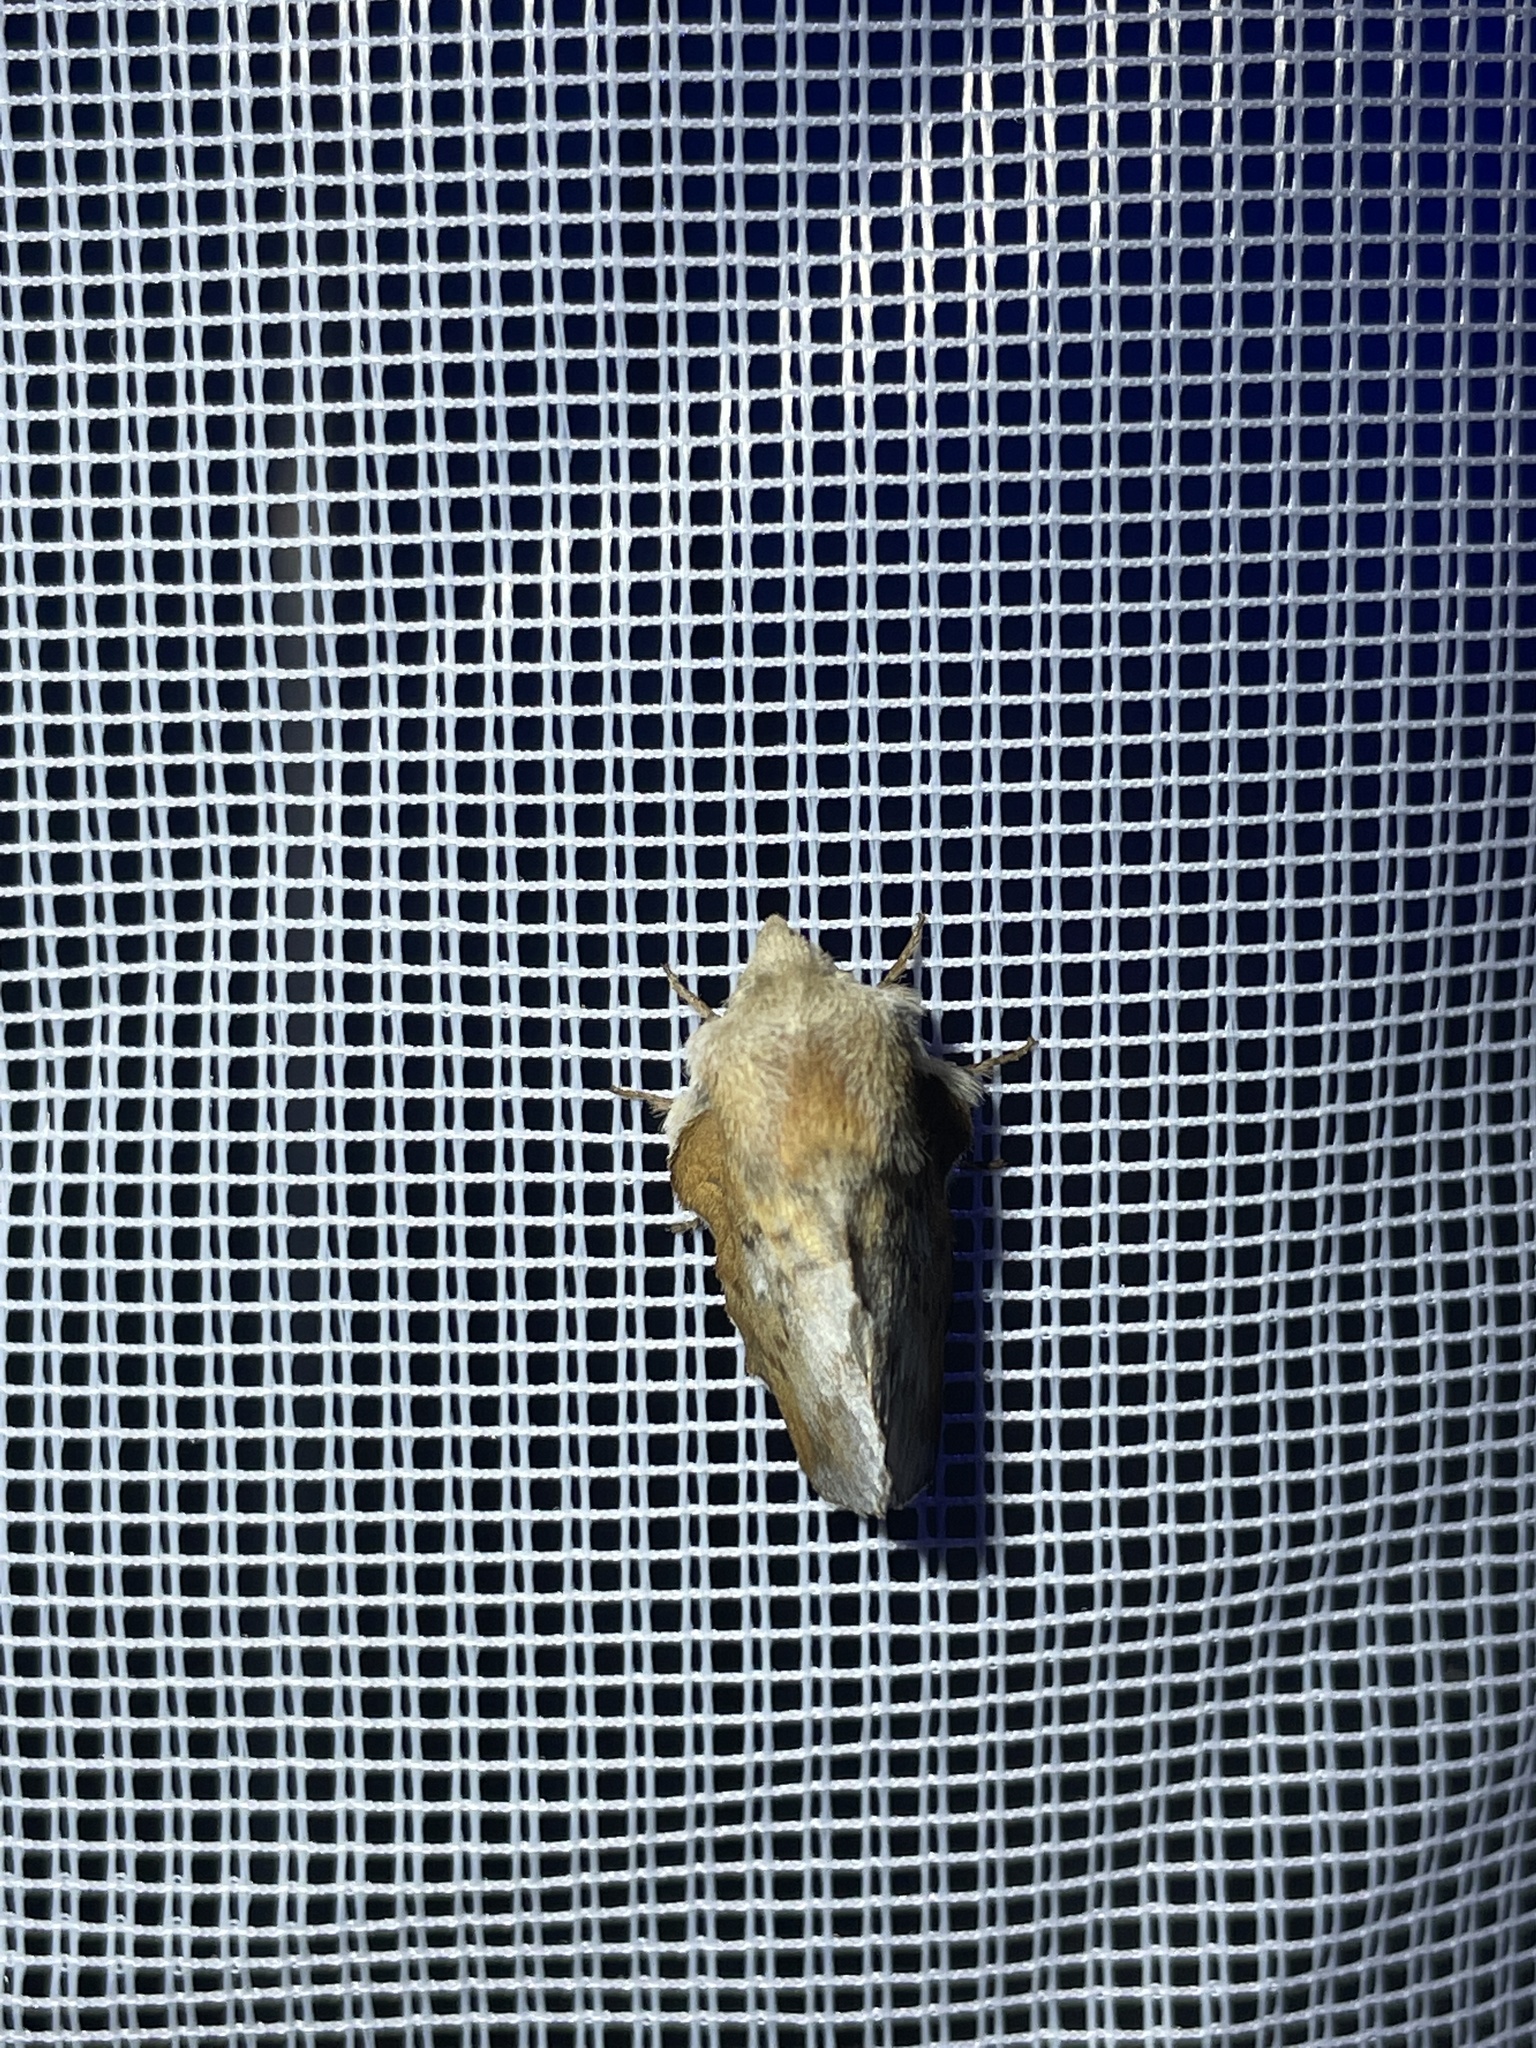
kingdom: Animalia
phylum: Arthropoda
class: Insecta
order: Lepidoptera
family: Lasiocampidae
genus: Phyllodesma
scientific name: Phyllodesma americana
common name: American lappet moth
